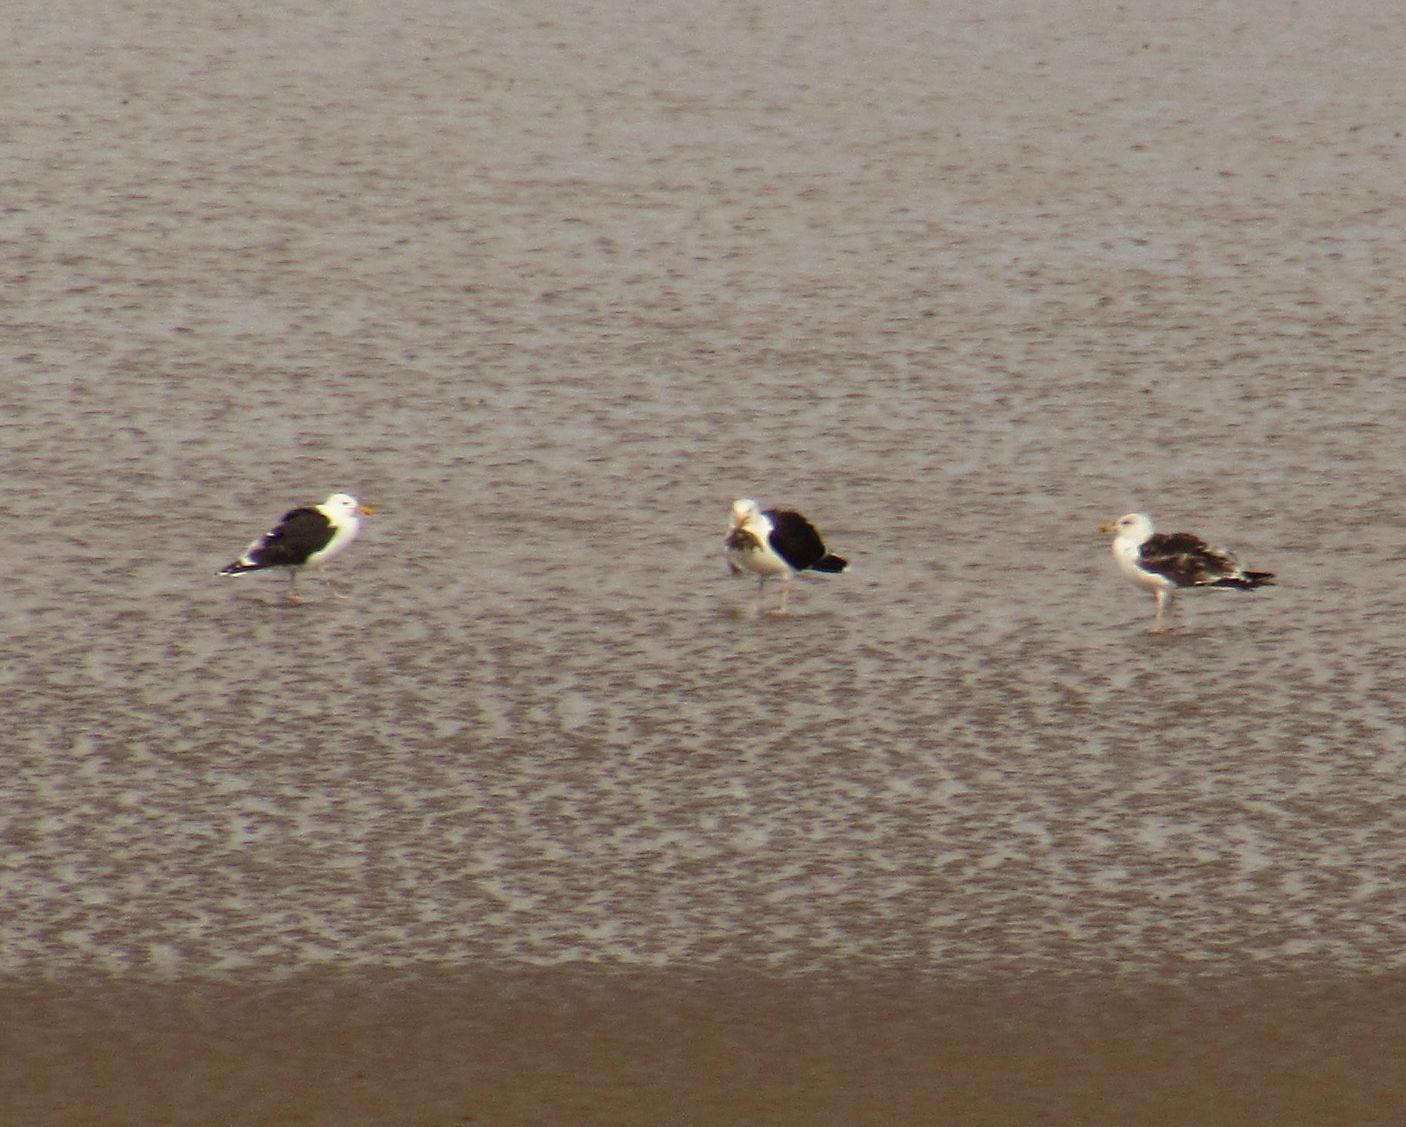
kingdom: Animalia
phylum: Chordata
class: Aves
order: Charadriiformes
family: Laridae
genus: Larus
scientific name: Larus marinus
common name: Great black-backed gull
